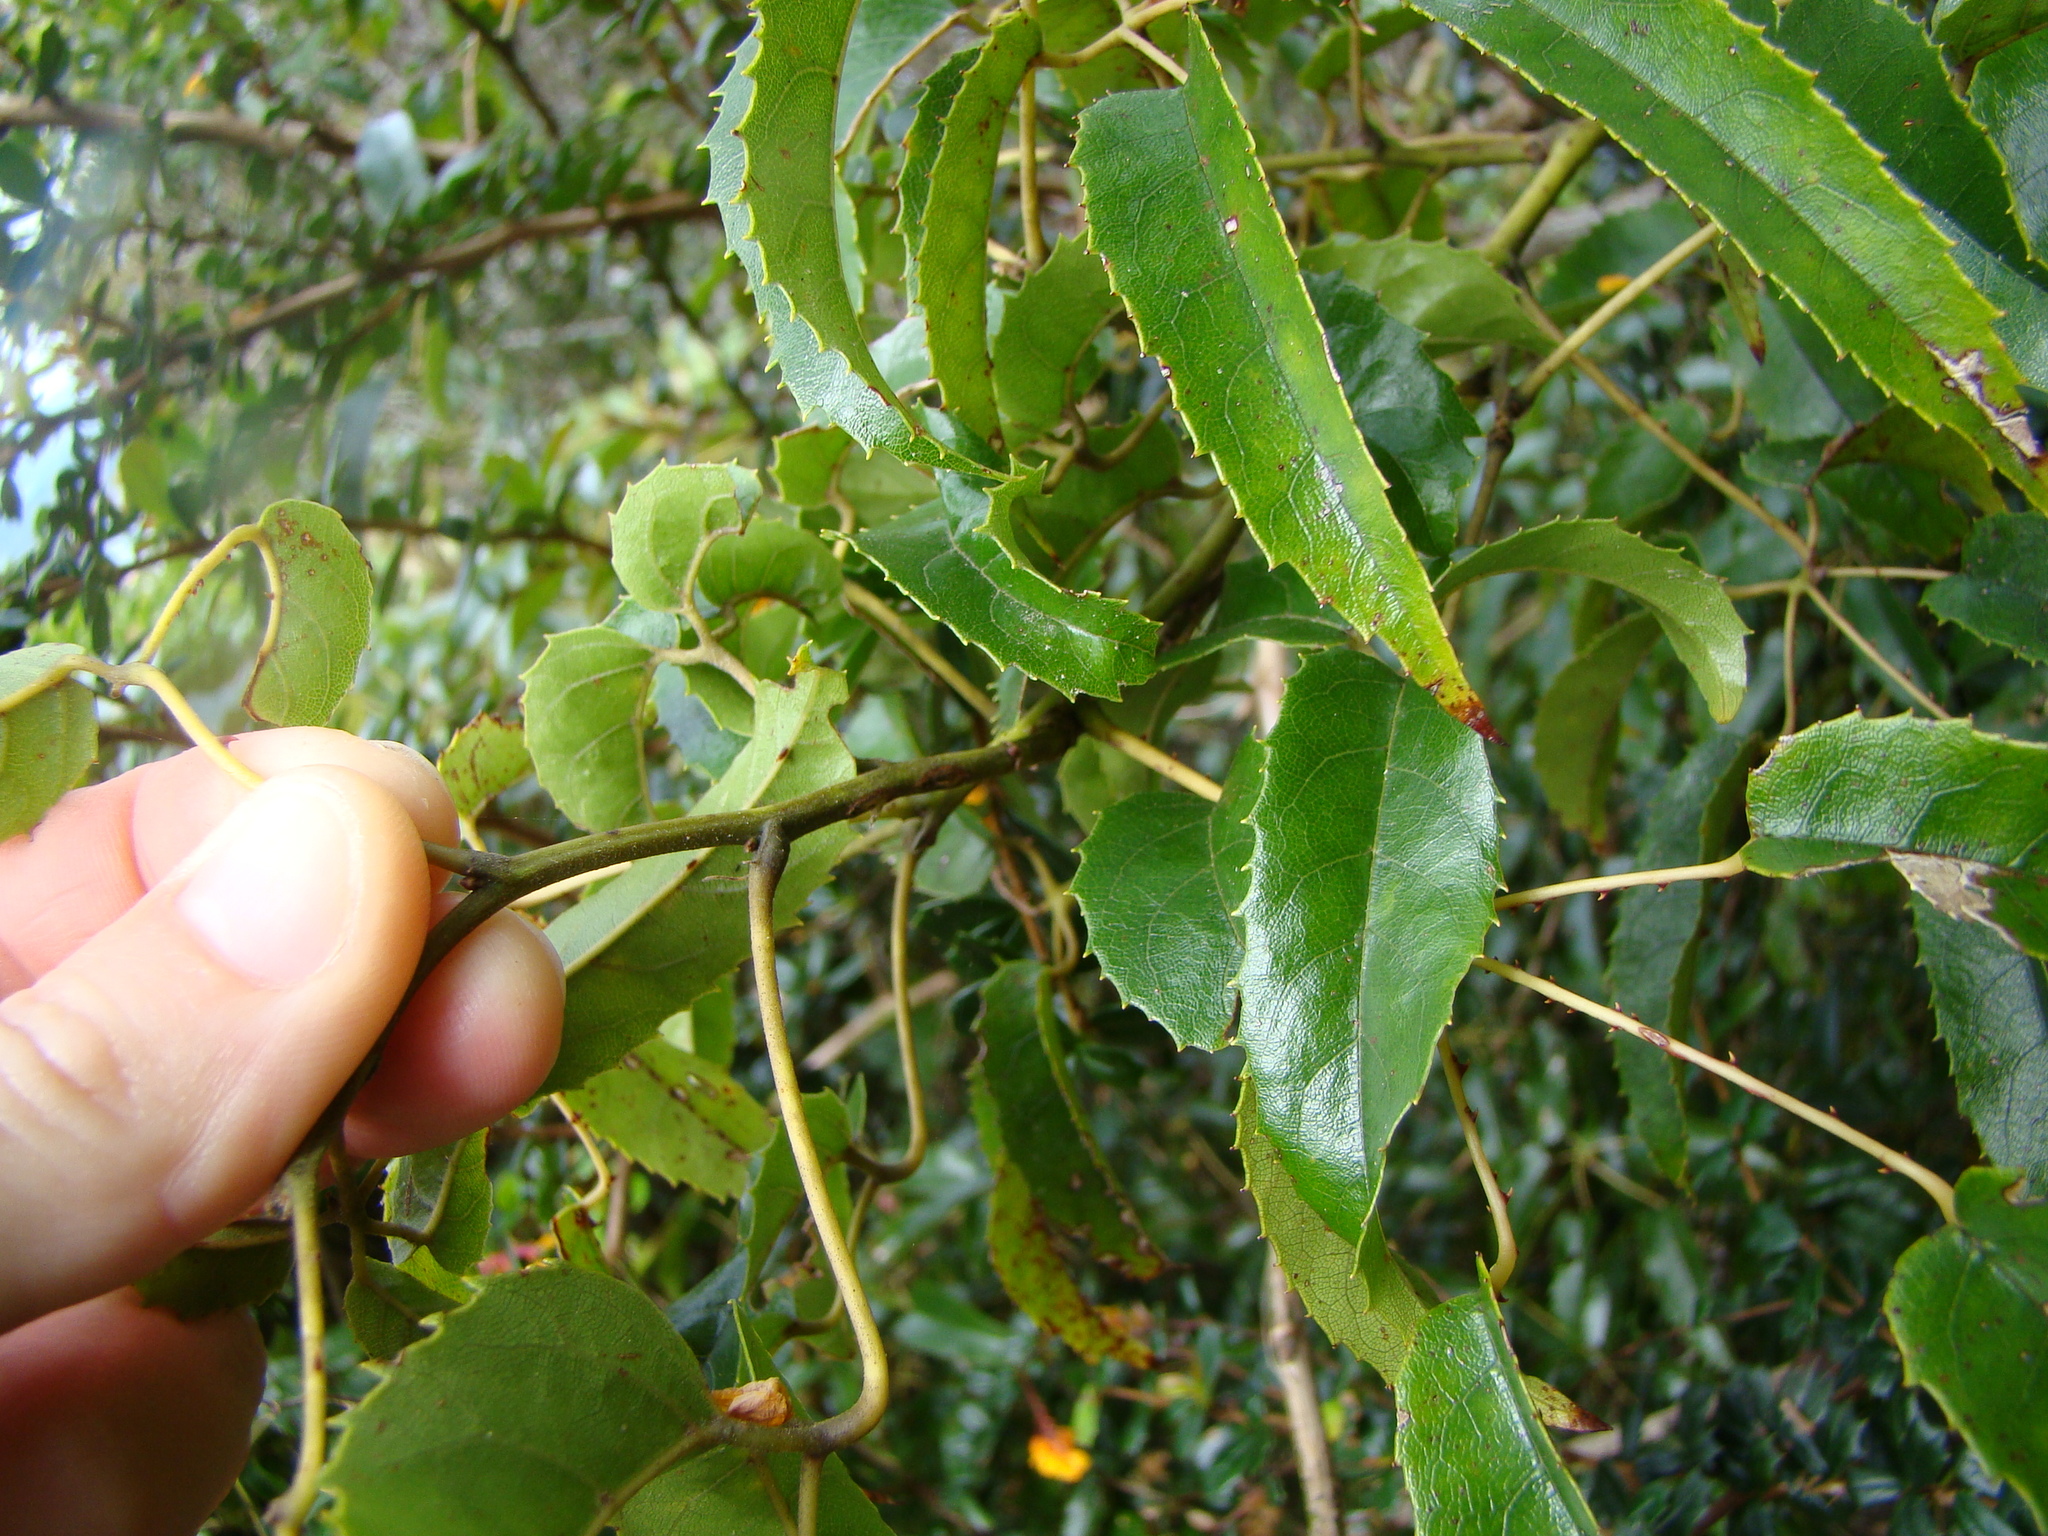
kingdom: Plantae
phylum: Tracheophyta
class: Magnoliopsida
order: Rosales
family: Rosaceae
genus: Rubus
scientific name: Rubus cissoides
